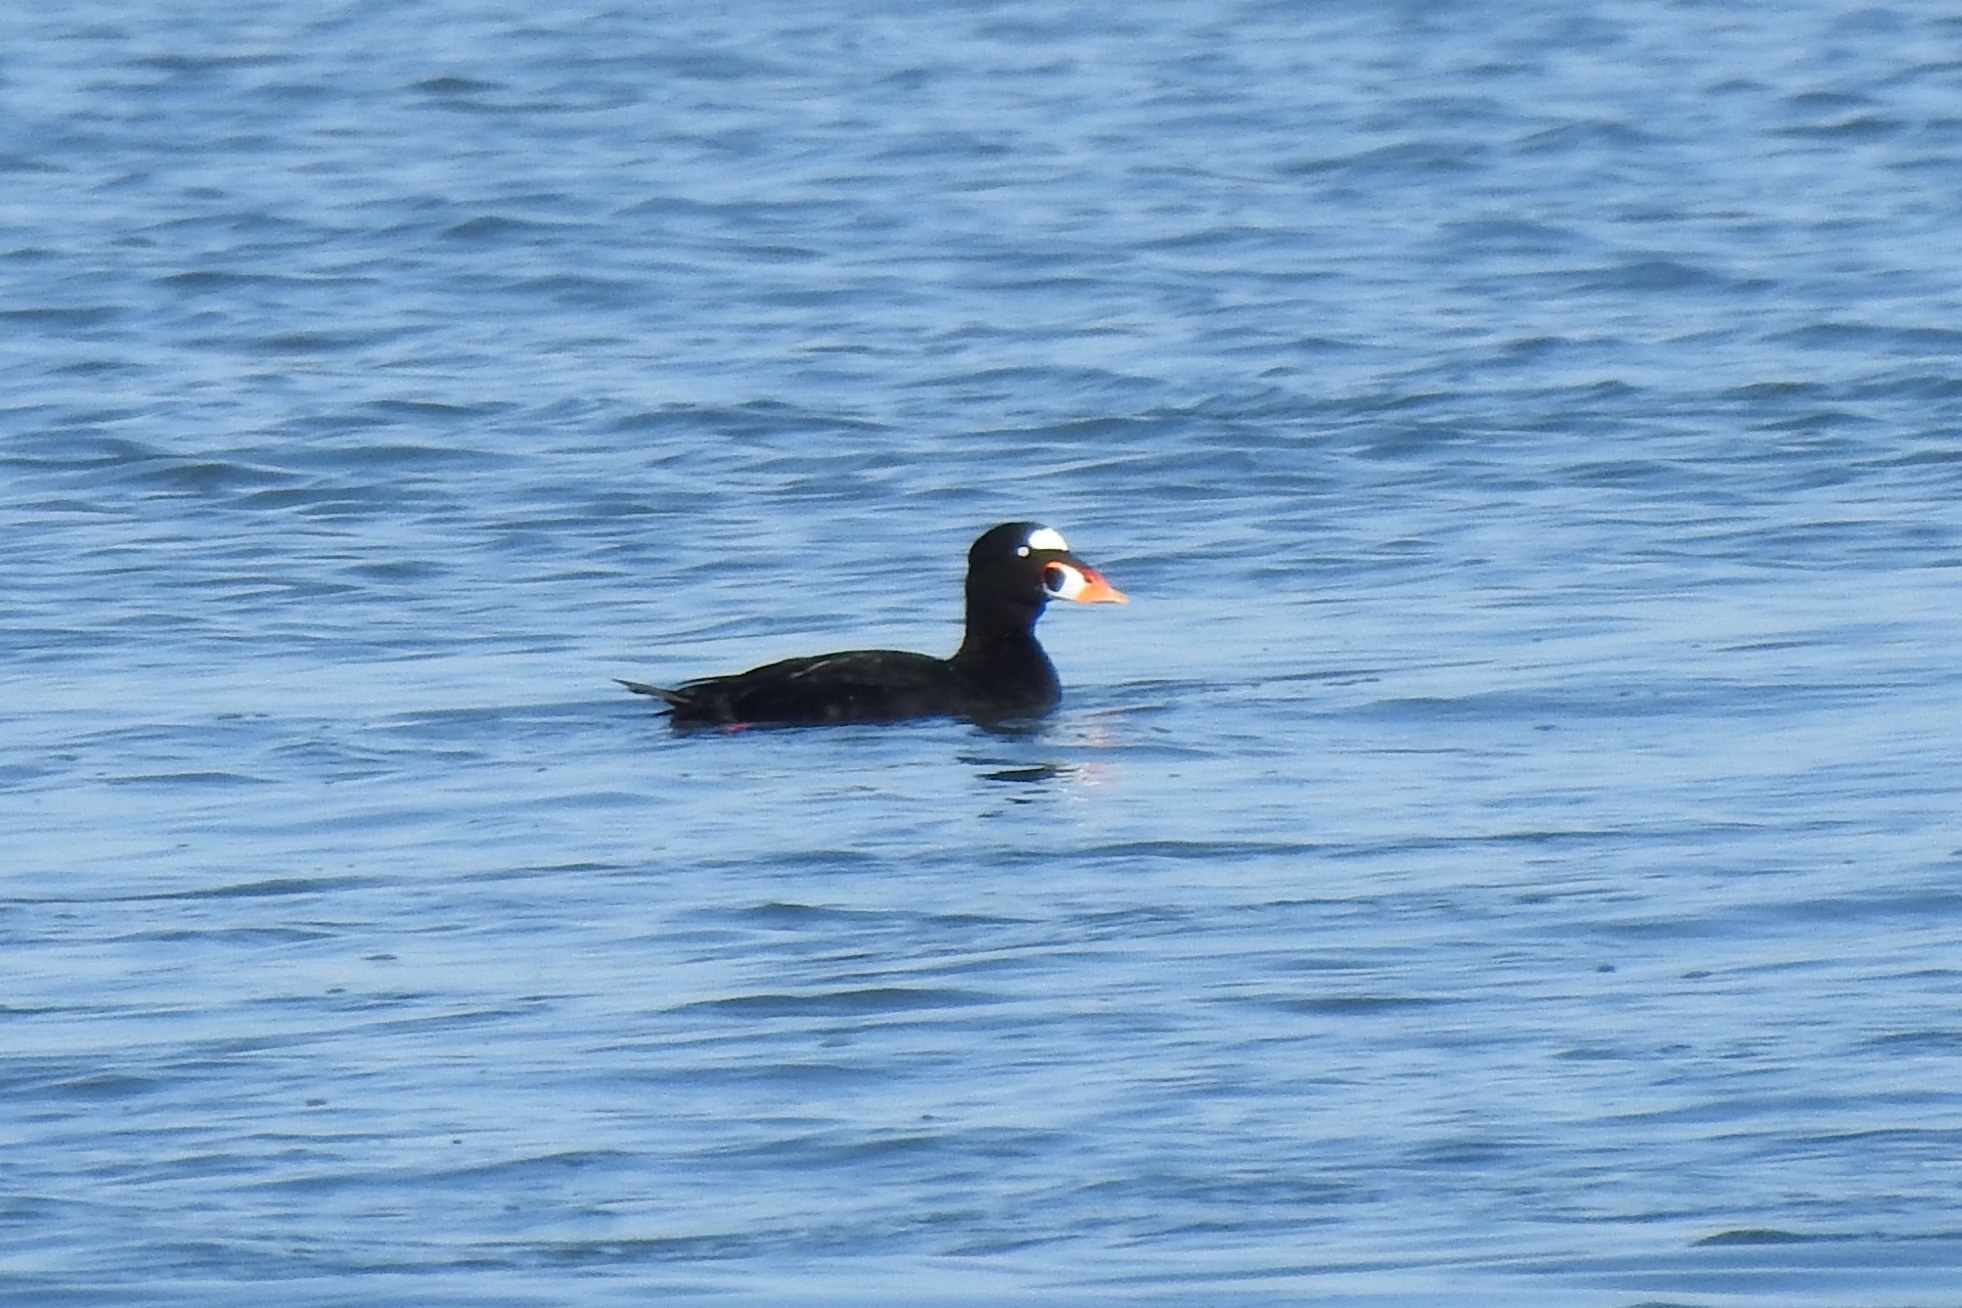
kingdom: Animalia
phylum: Chordata
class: Aves
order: Anseriformes
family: Anatidae
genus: Melanitta
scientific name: Melanitta perspicillata
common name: Surf scoter
